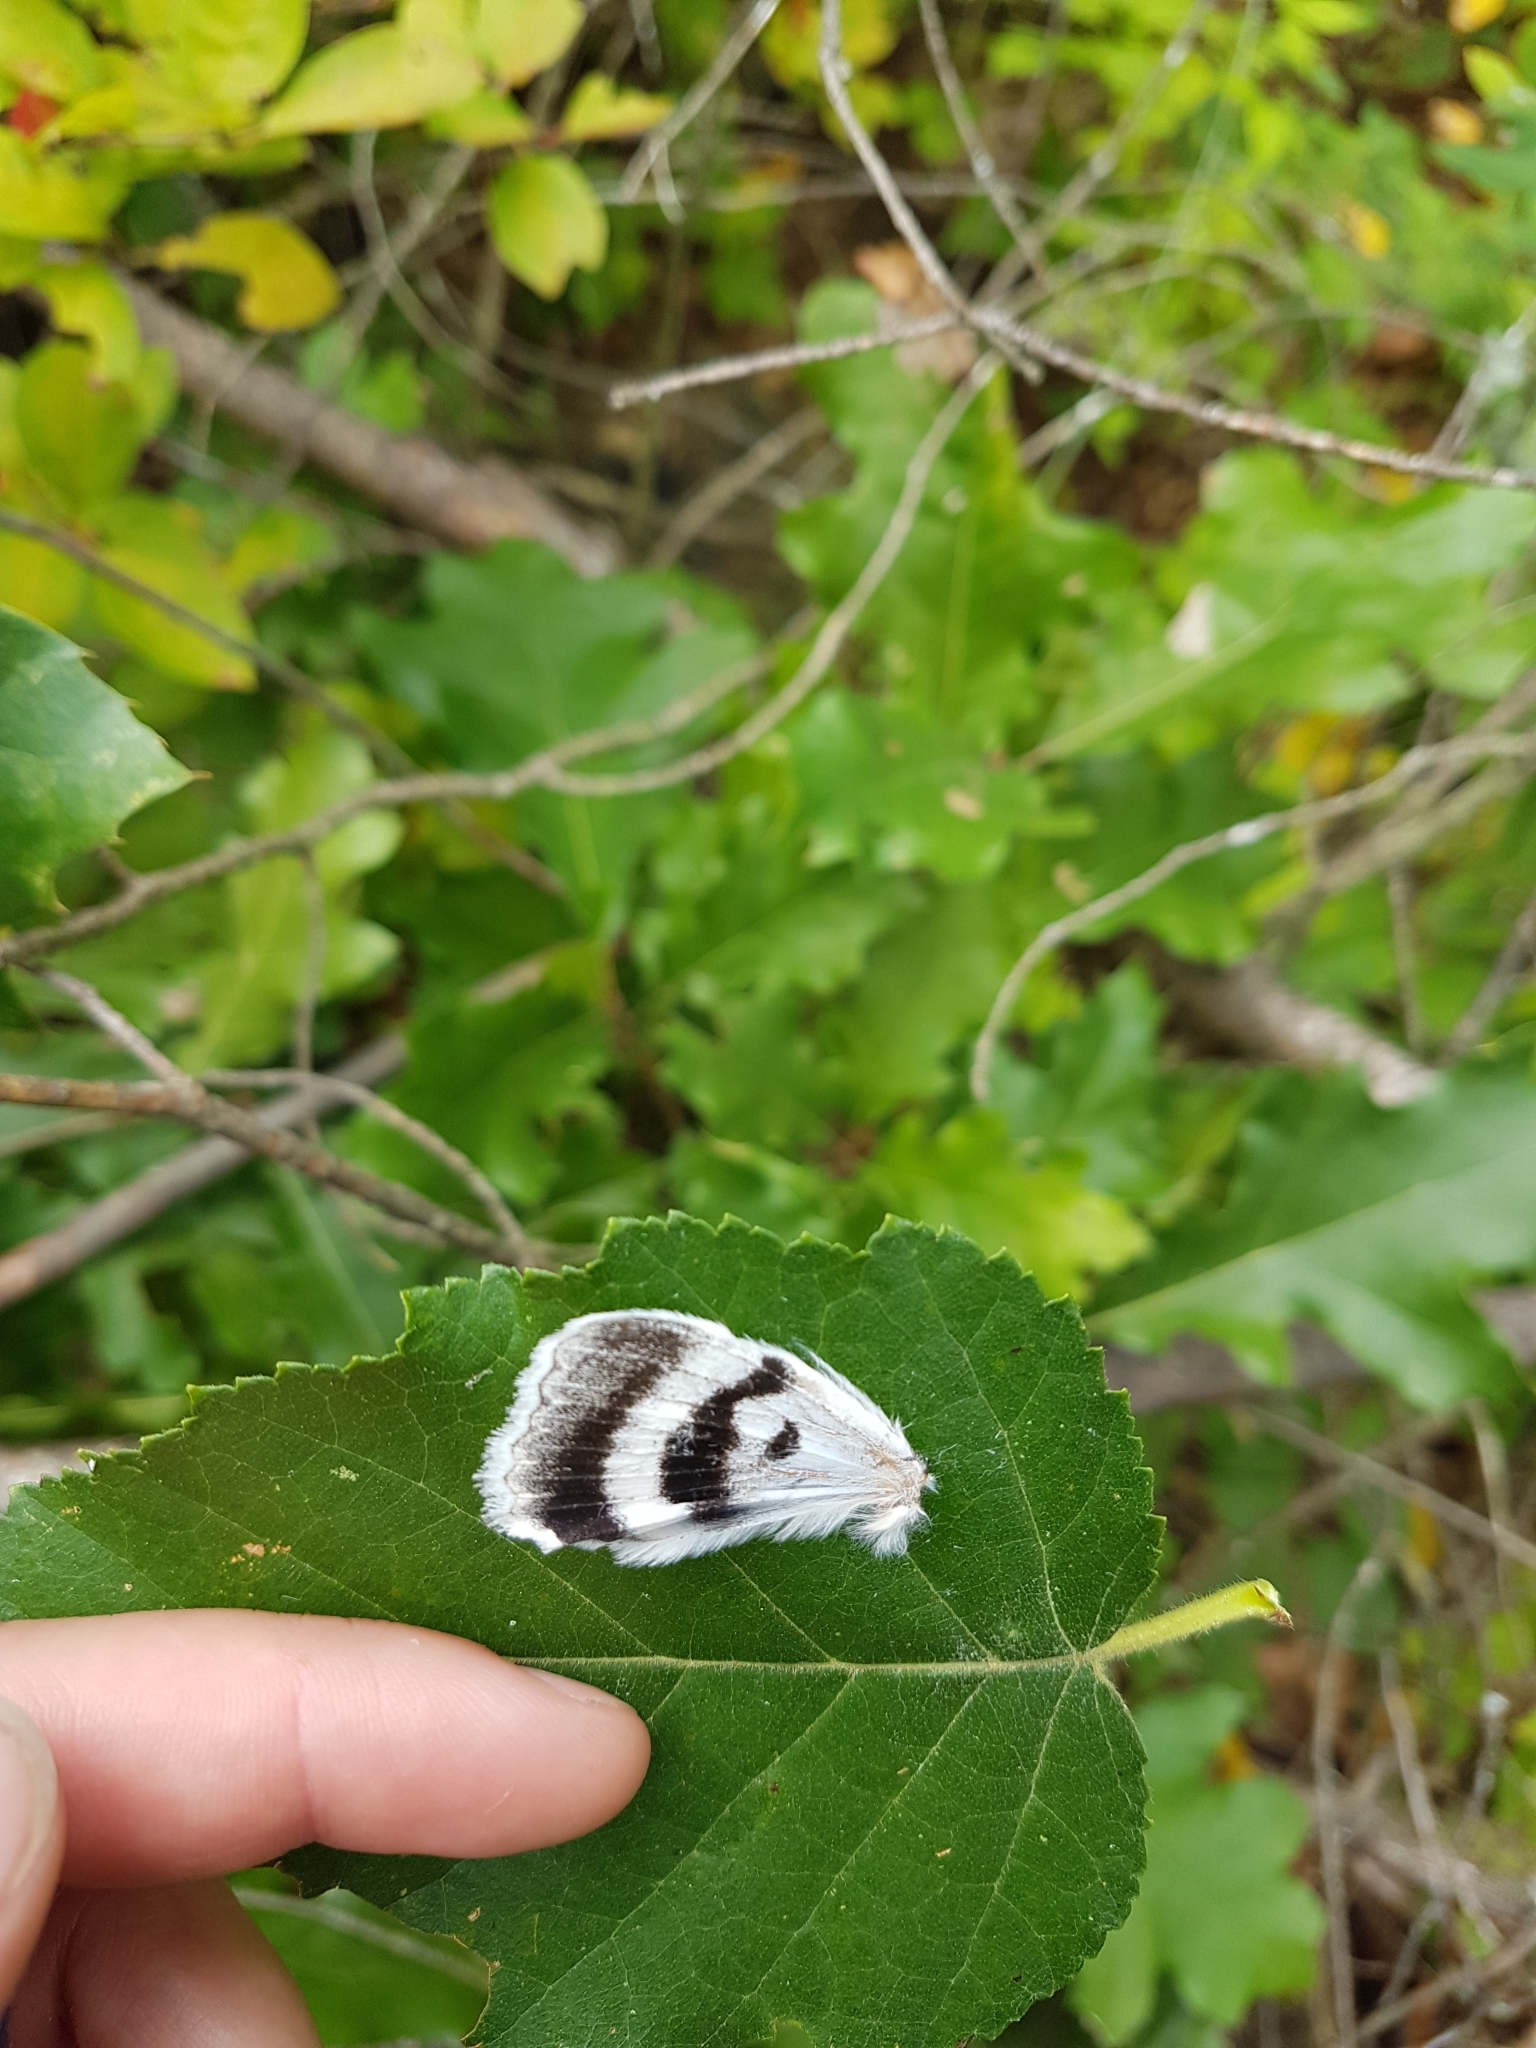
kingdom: Animalia
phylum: Arthropoda
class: Insecta
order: Lepidoptera
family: Erebidae
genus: Catocala
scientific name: Catocala relicta
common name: White underwing
